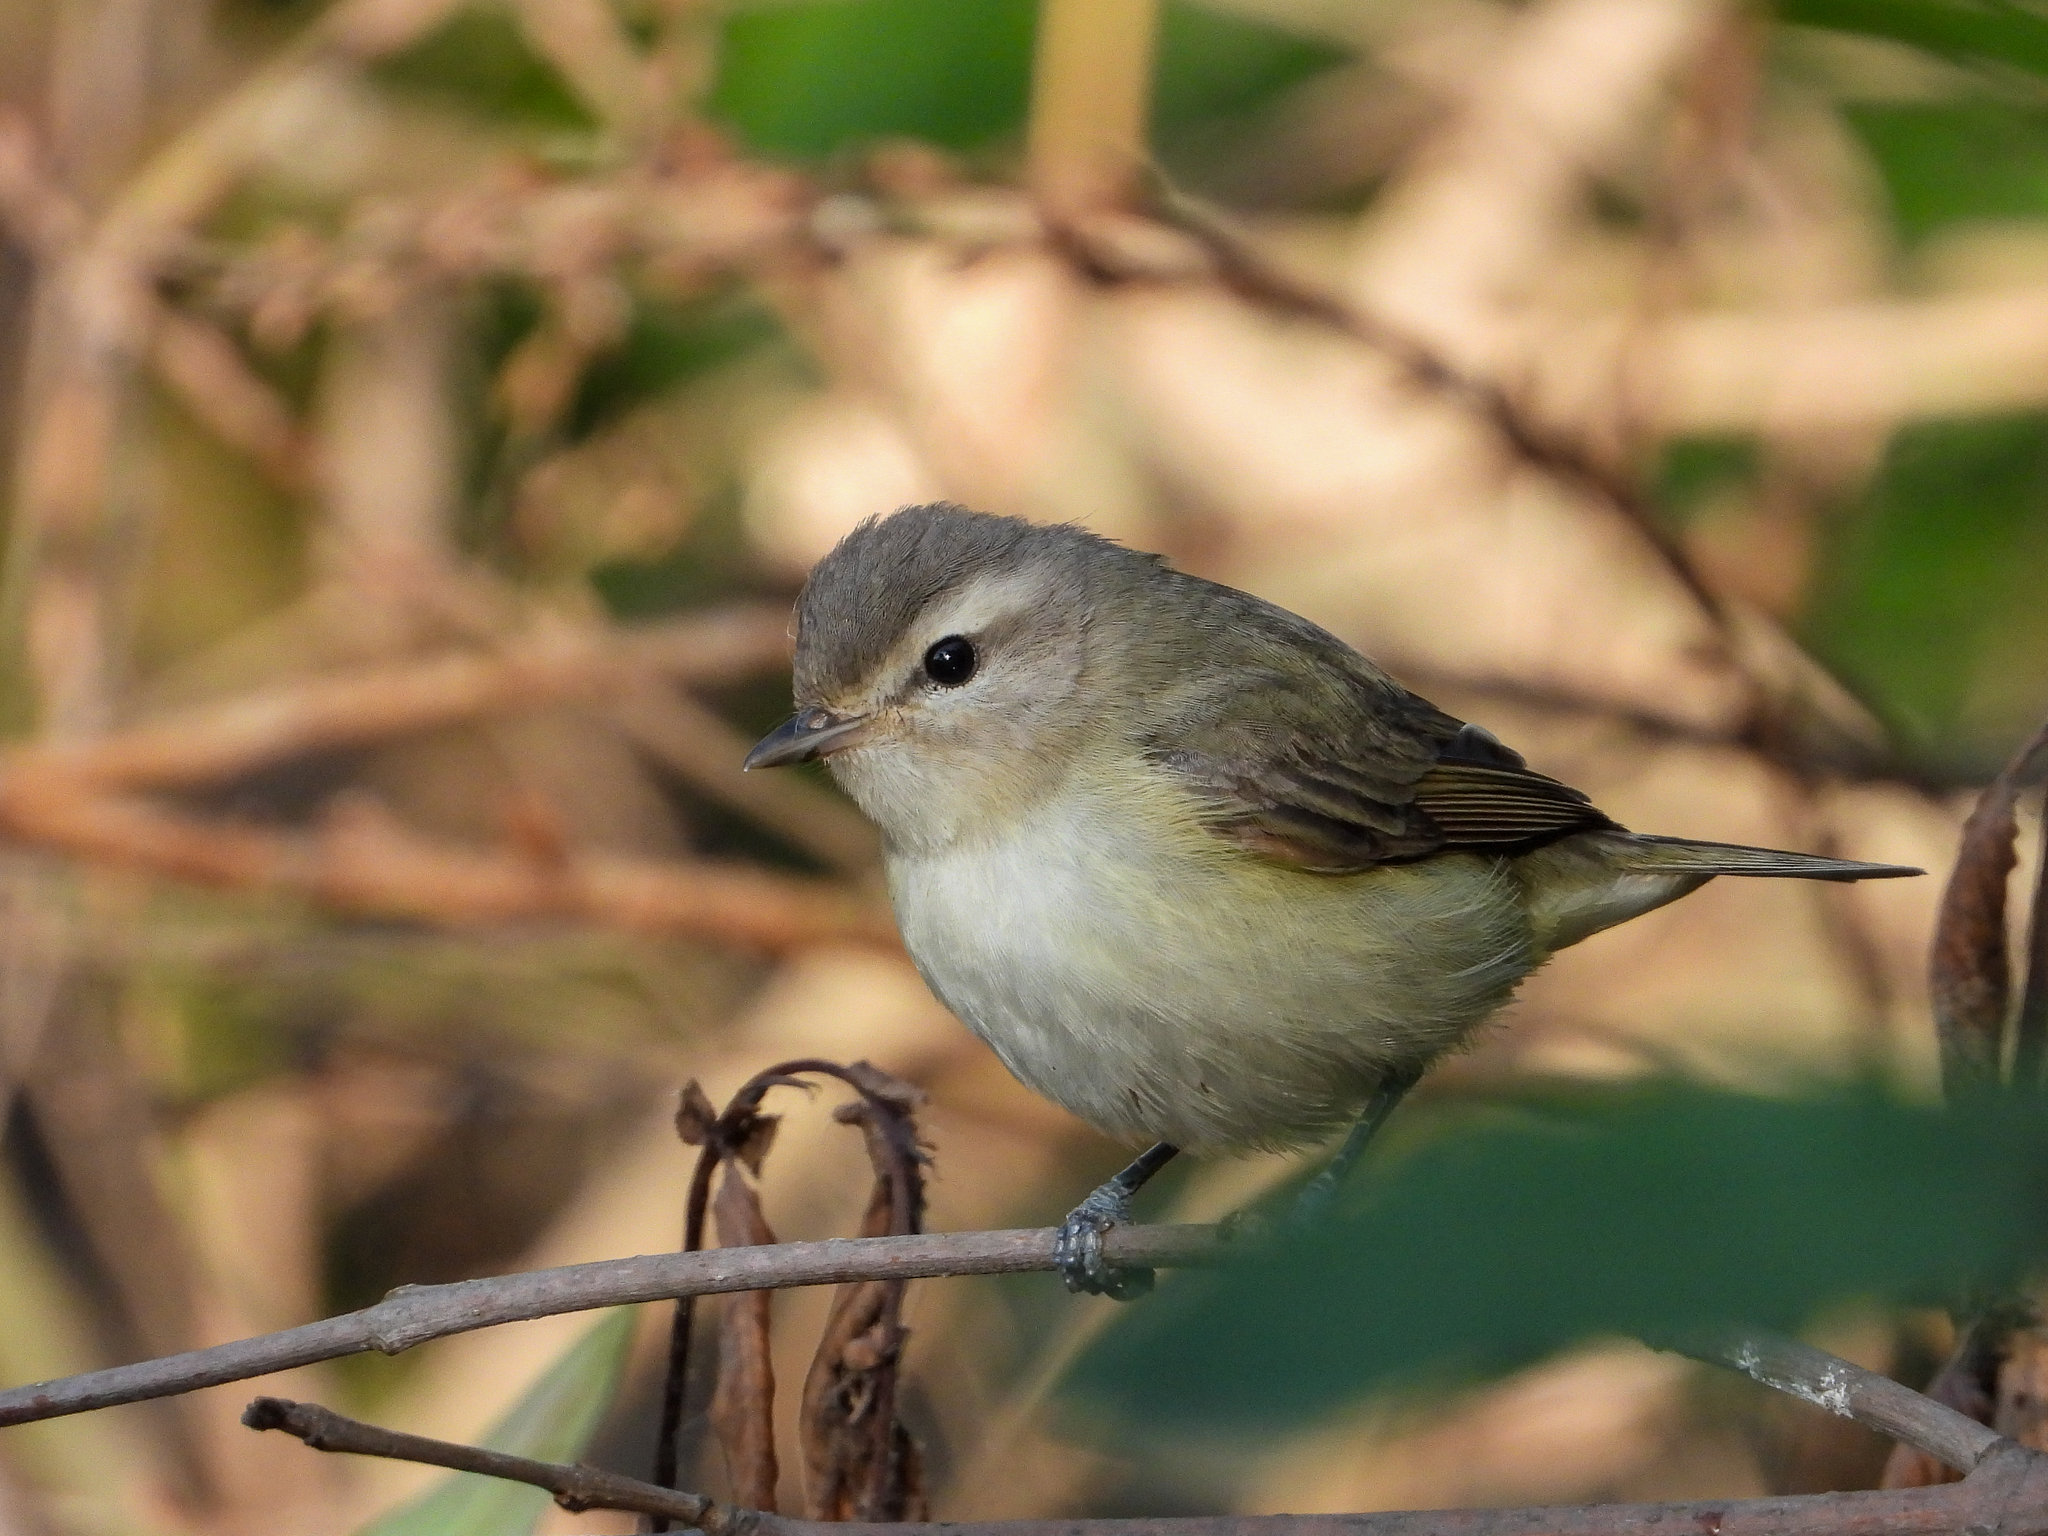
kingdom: Animalia
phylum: Chordata
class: Aves
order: Passeriformes
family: Vireonidae
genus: Vireo
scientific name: Vireo gilvus
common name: Warbling vireo
